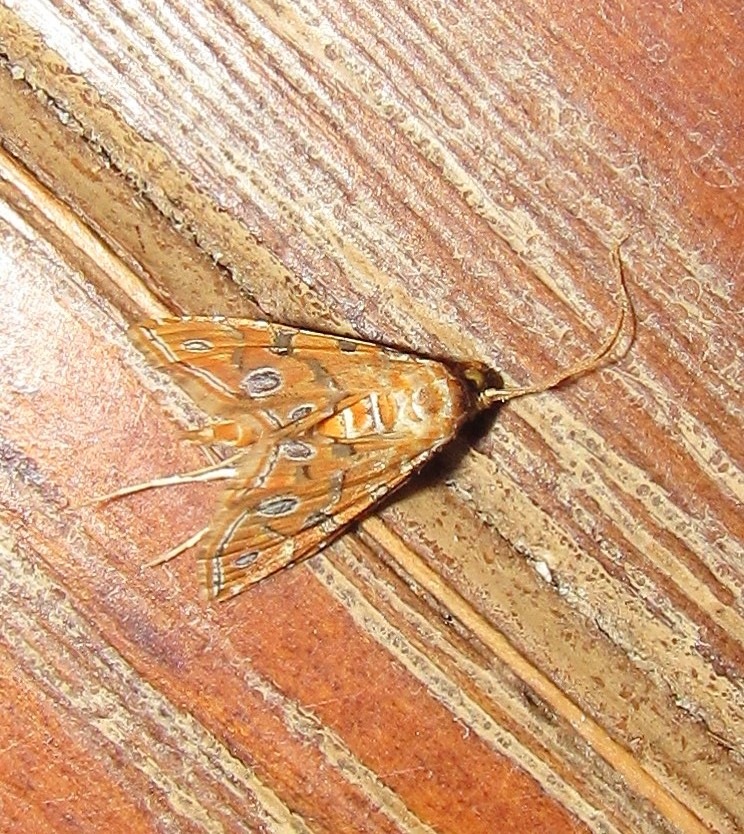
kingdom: Animalia
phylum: Arthropoda
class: Insecta
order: Lepidoptera
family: Crambidae
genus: Ommatospila
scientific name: Ommatospila narcaeusalis
